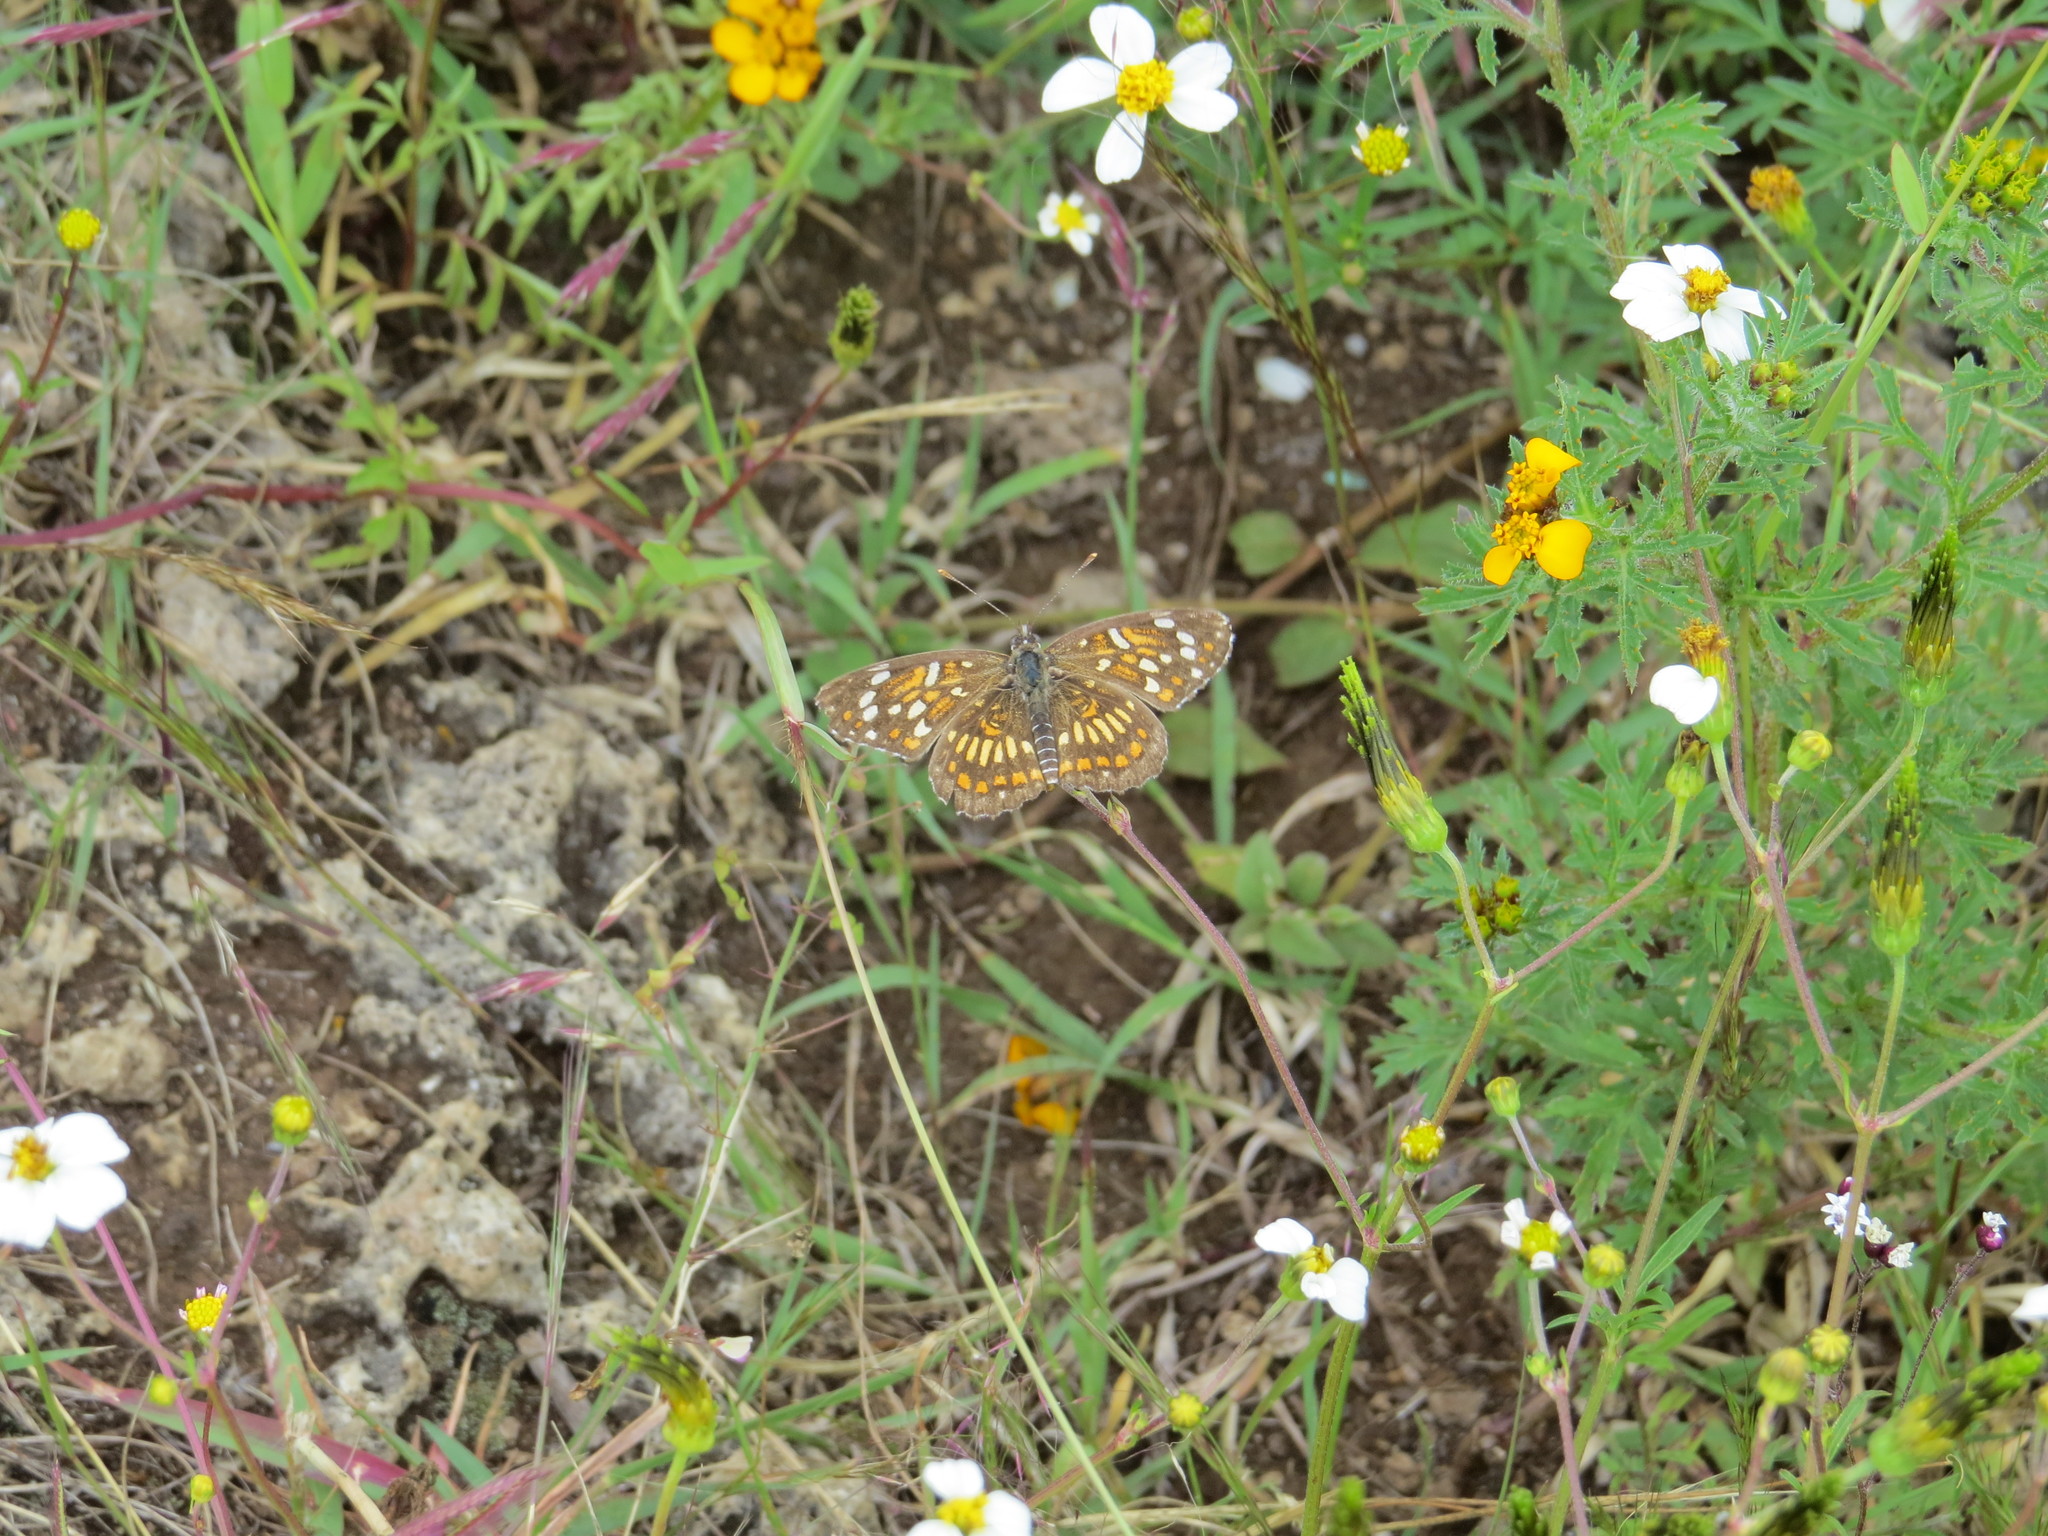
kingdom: Animalia
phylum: Arthropoda
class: Insecta
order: Lepidoptera
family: Nymphalidae
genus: Thessalia
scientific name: Thessalia theona
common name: Nymphalid moth
